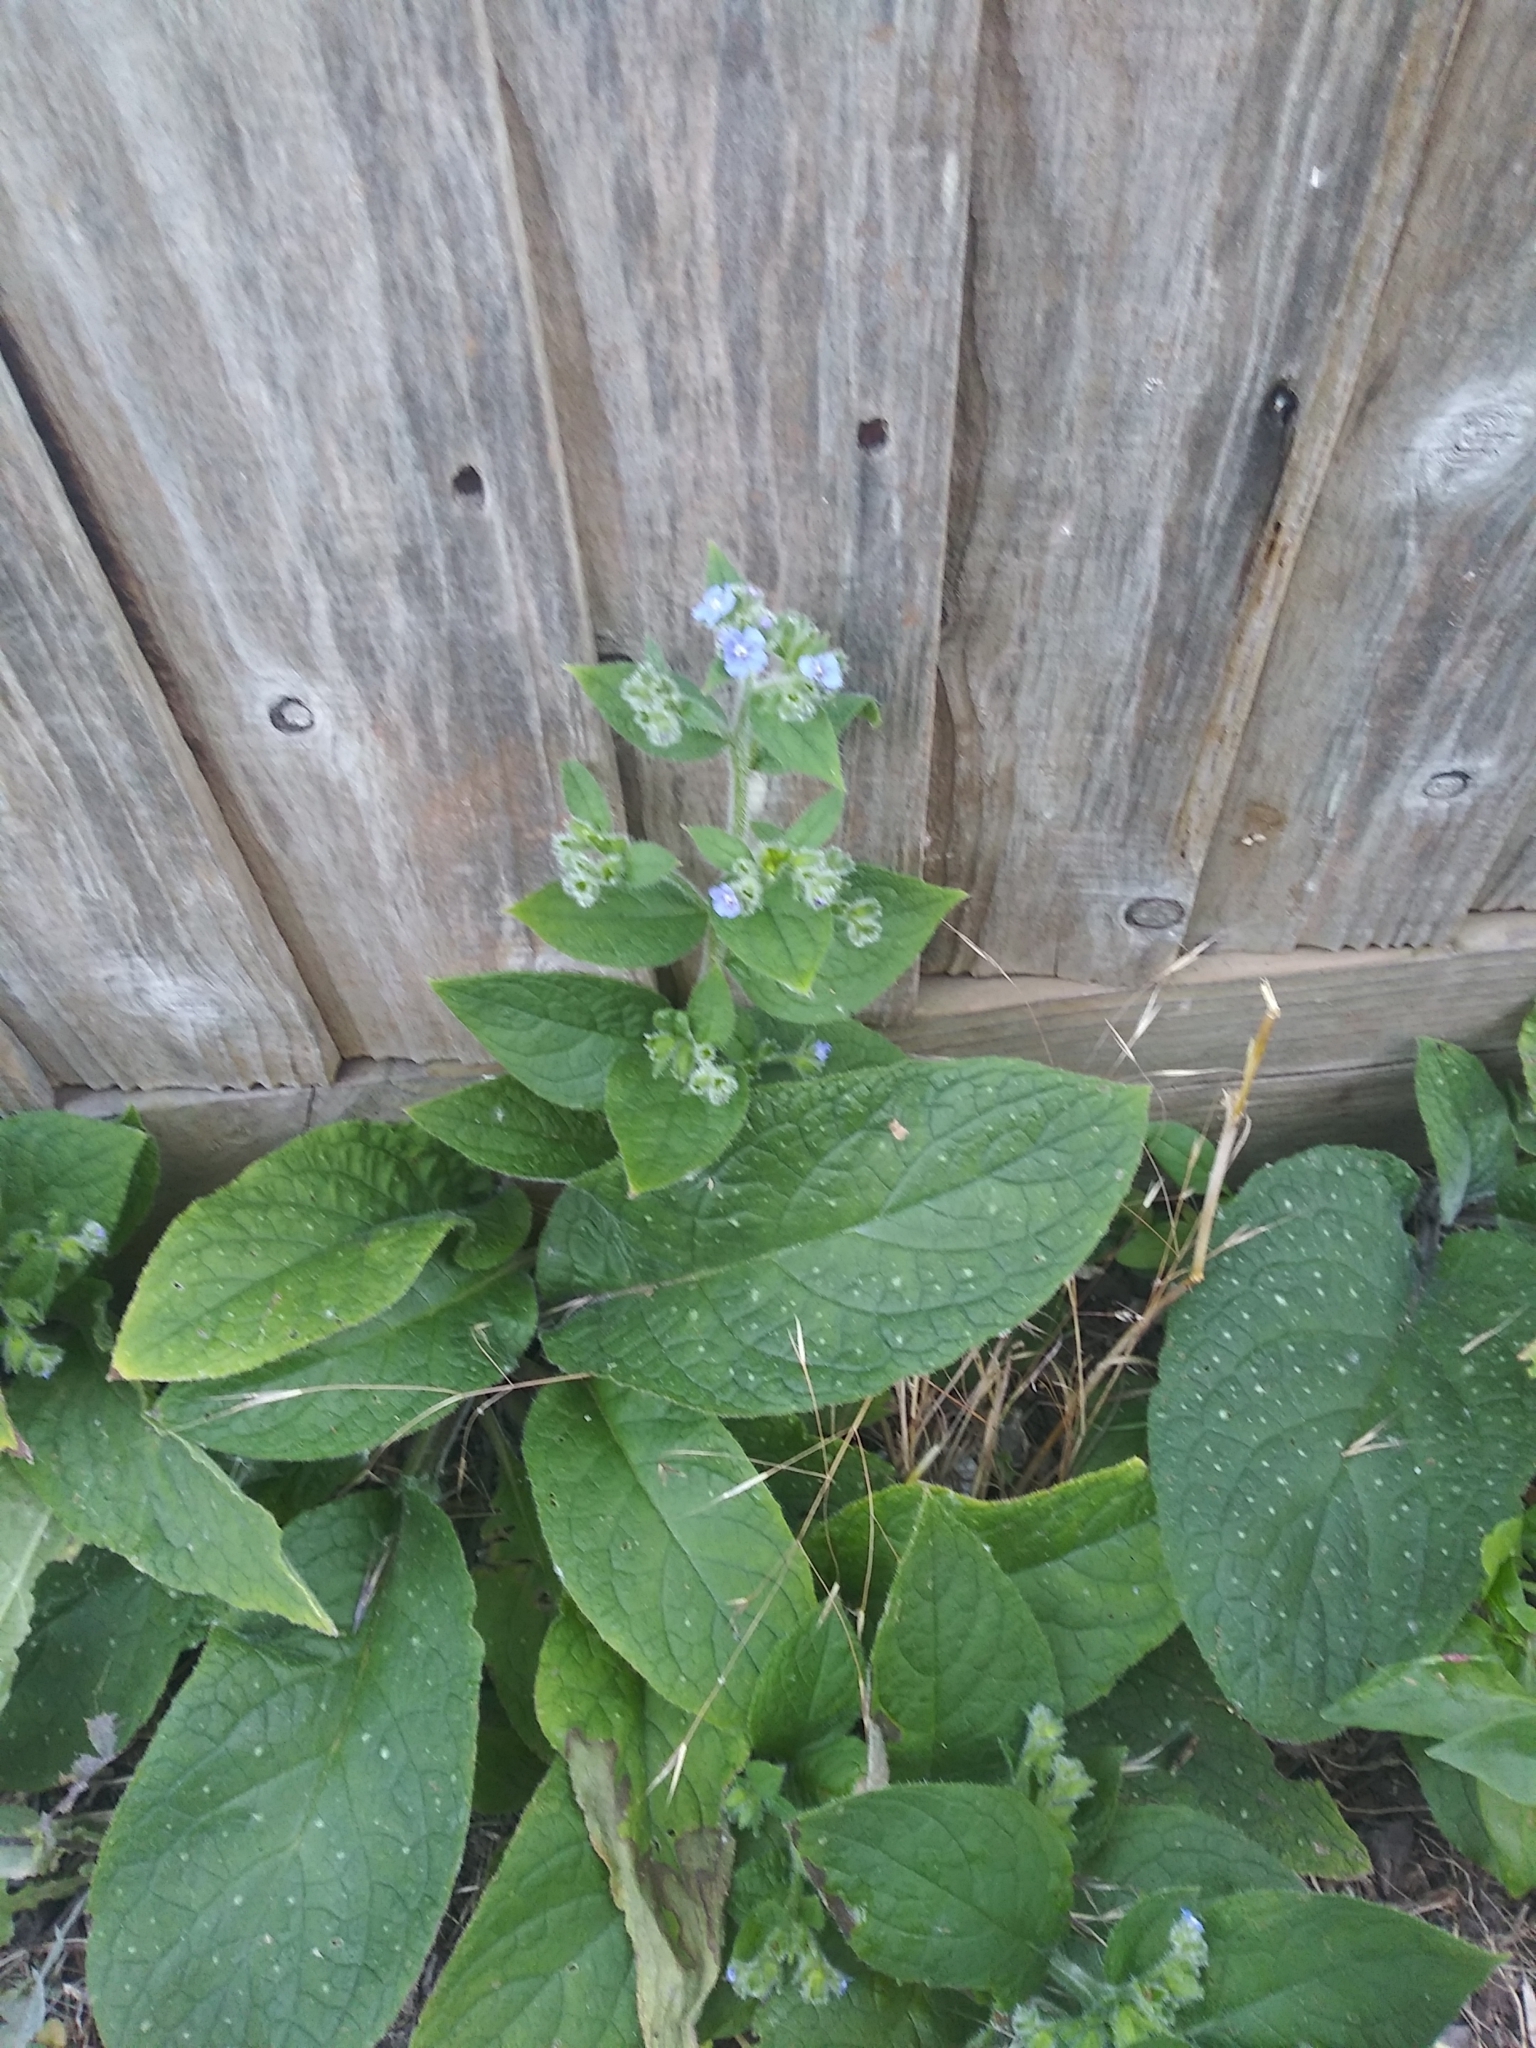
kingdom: Plantae
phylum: Tracheophyta
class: Magnoliopsida
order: Boraginales
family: Boraginaceae
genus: Pentaglottis
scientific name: Pentaglottis sempervirens
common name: Green alkanet
